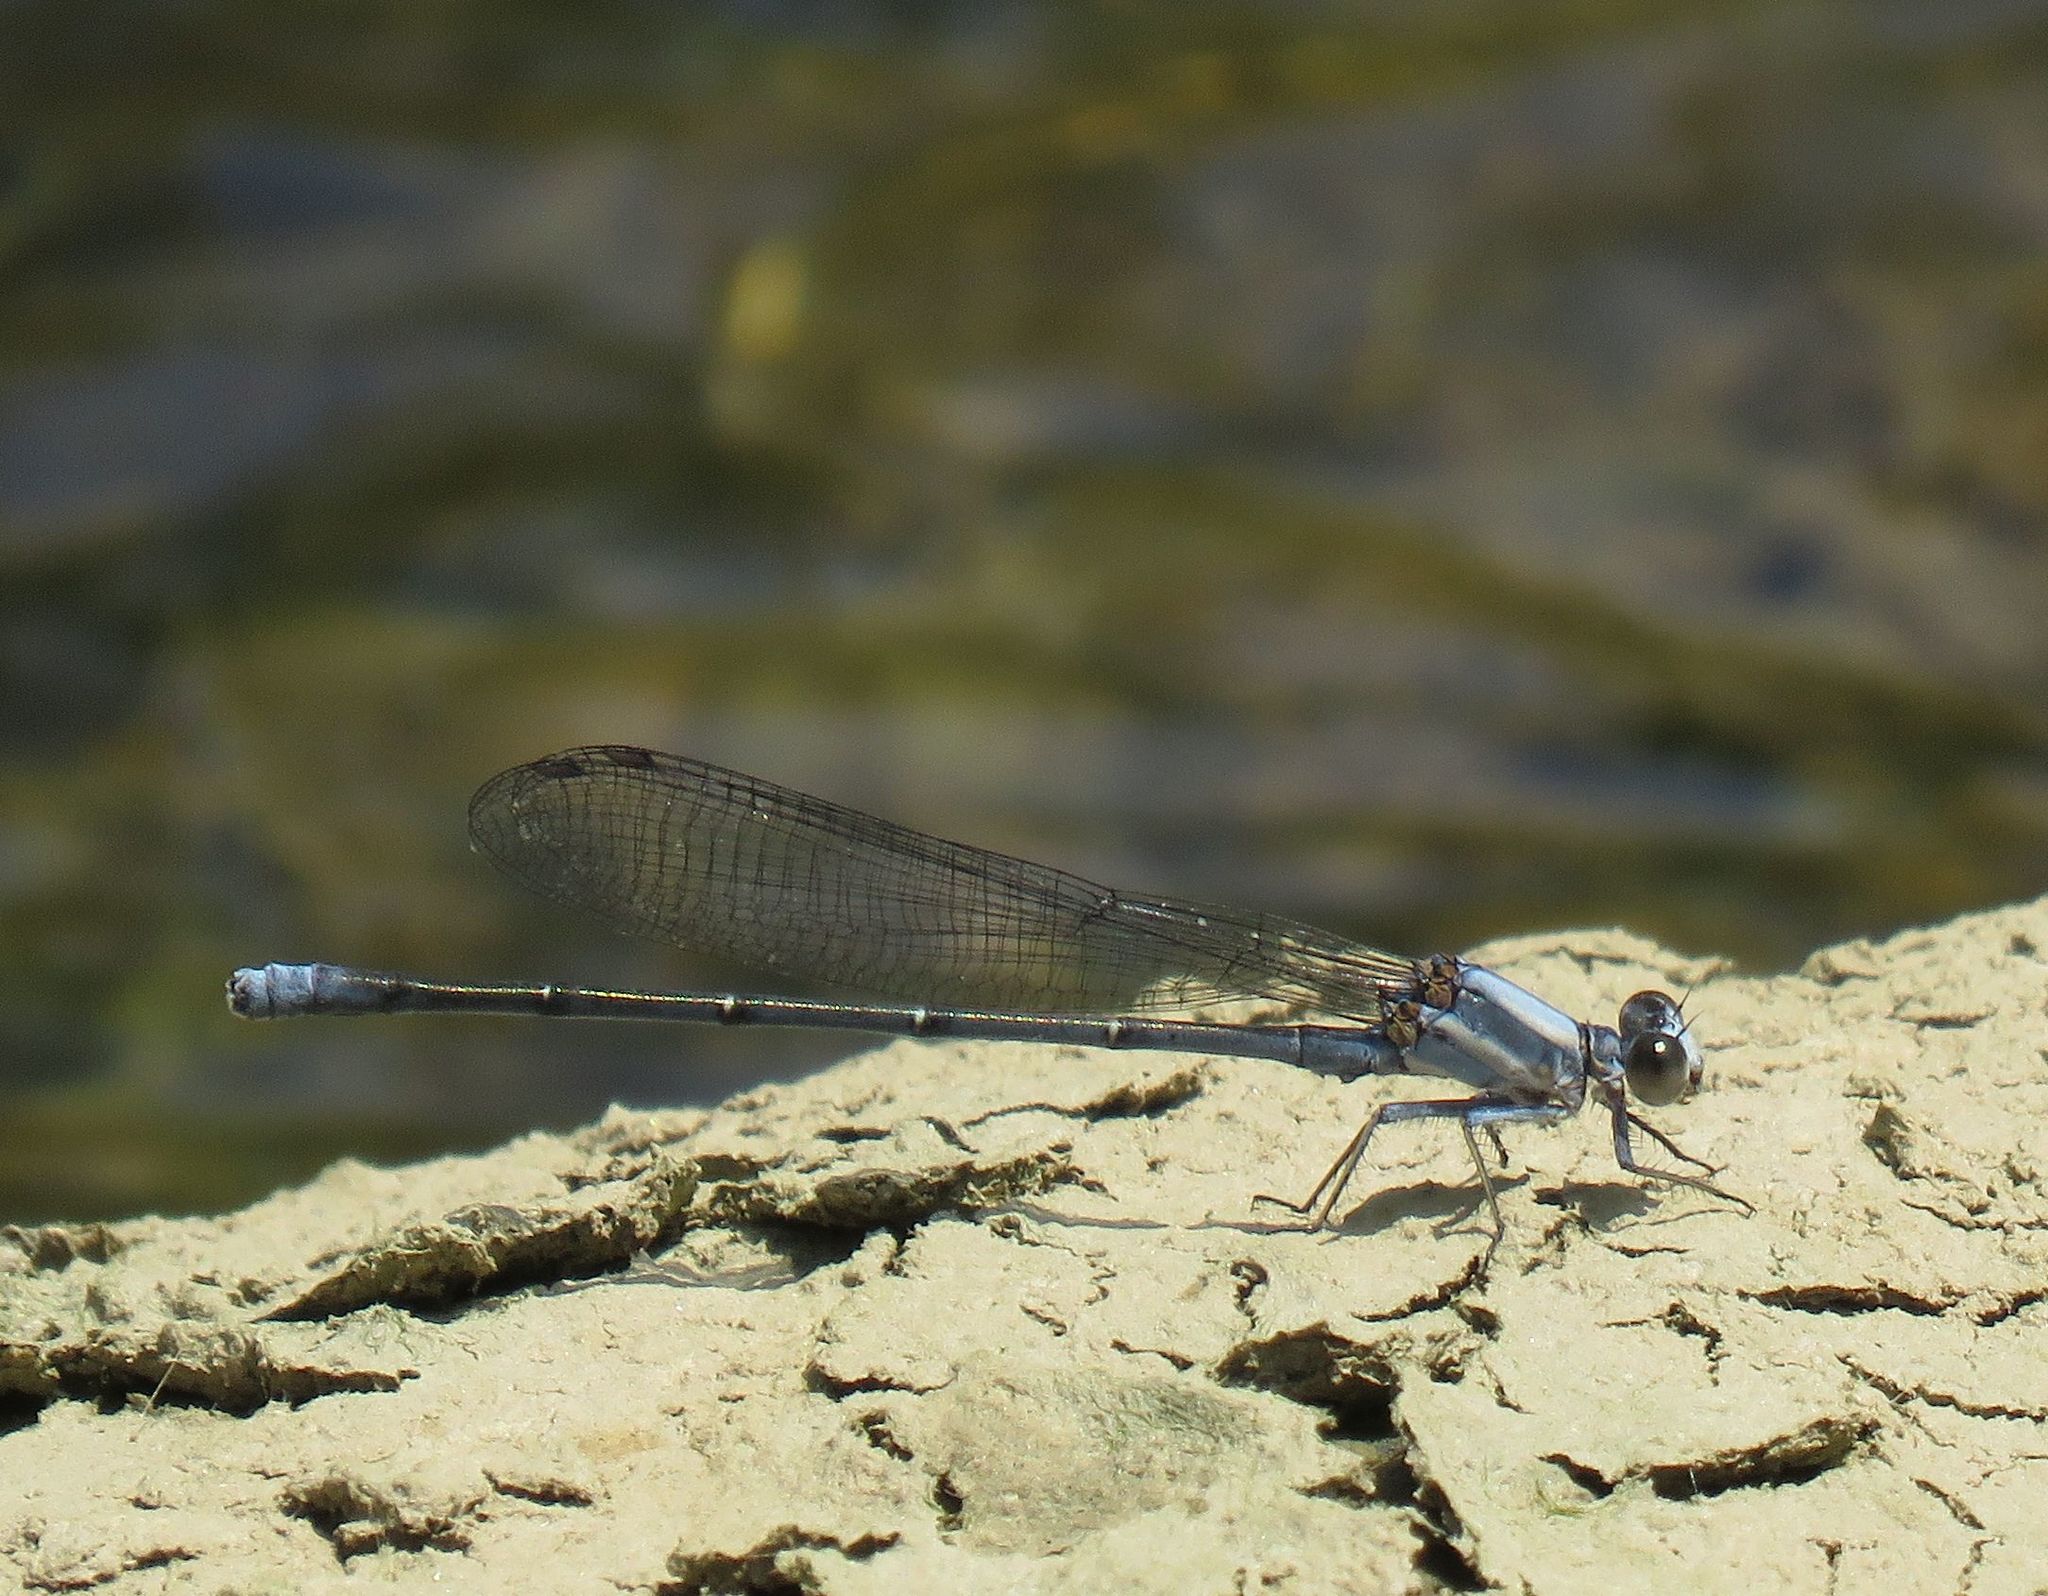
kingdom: Animalia
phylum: Arthropoda
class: Insecta
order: Odonata
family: Coenagrionidae
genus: Argia
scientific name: Argia moesta
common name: Powdered dancer
